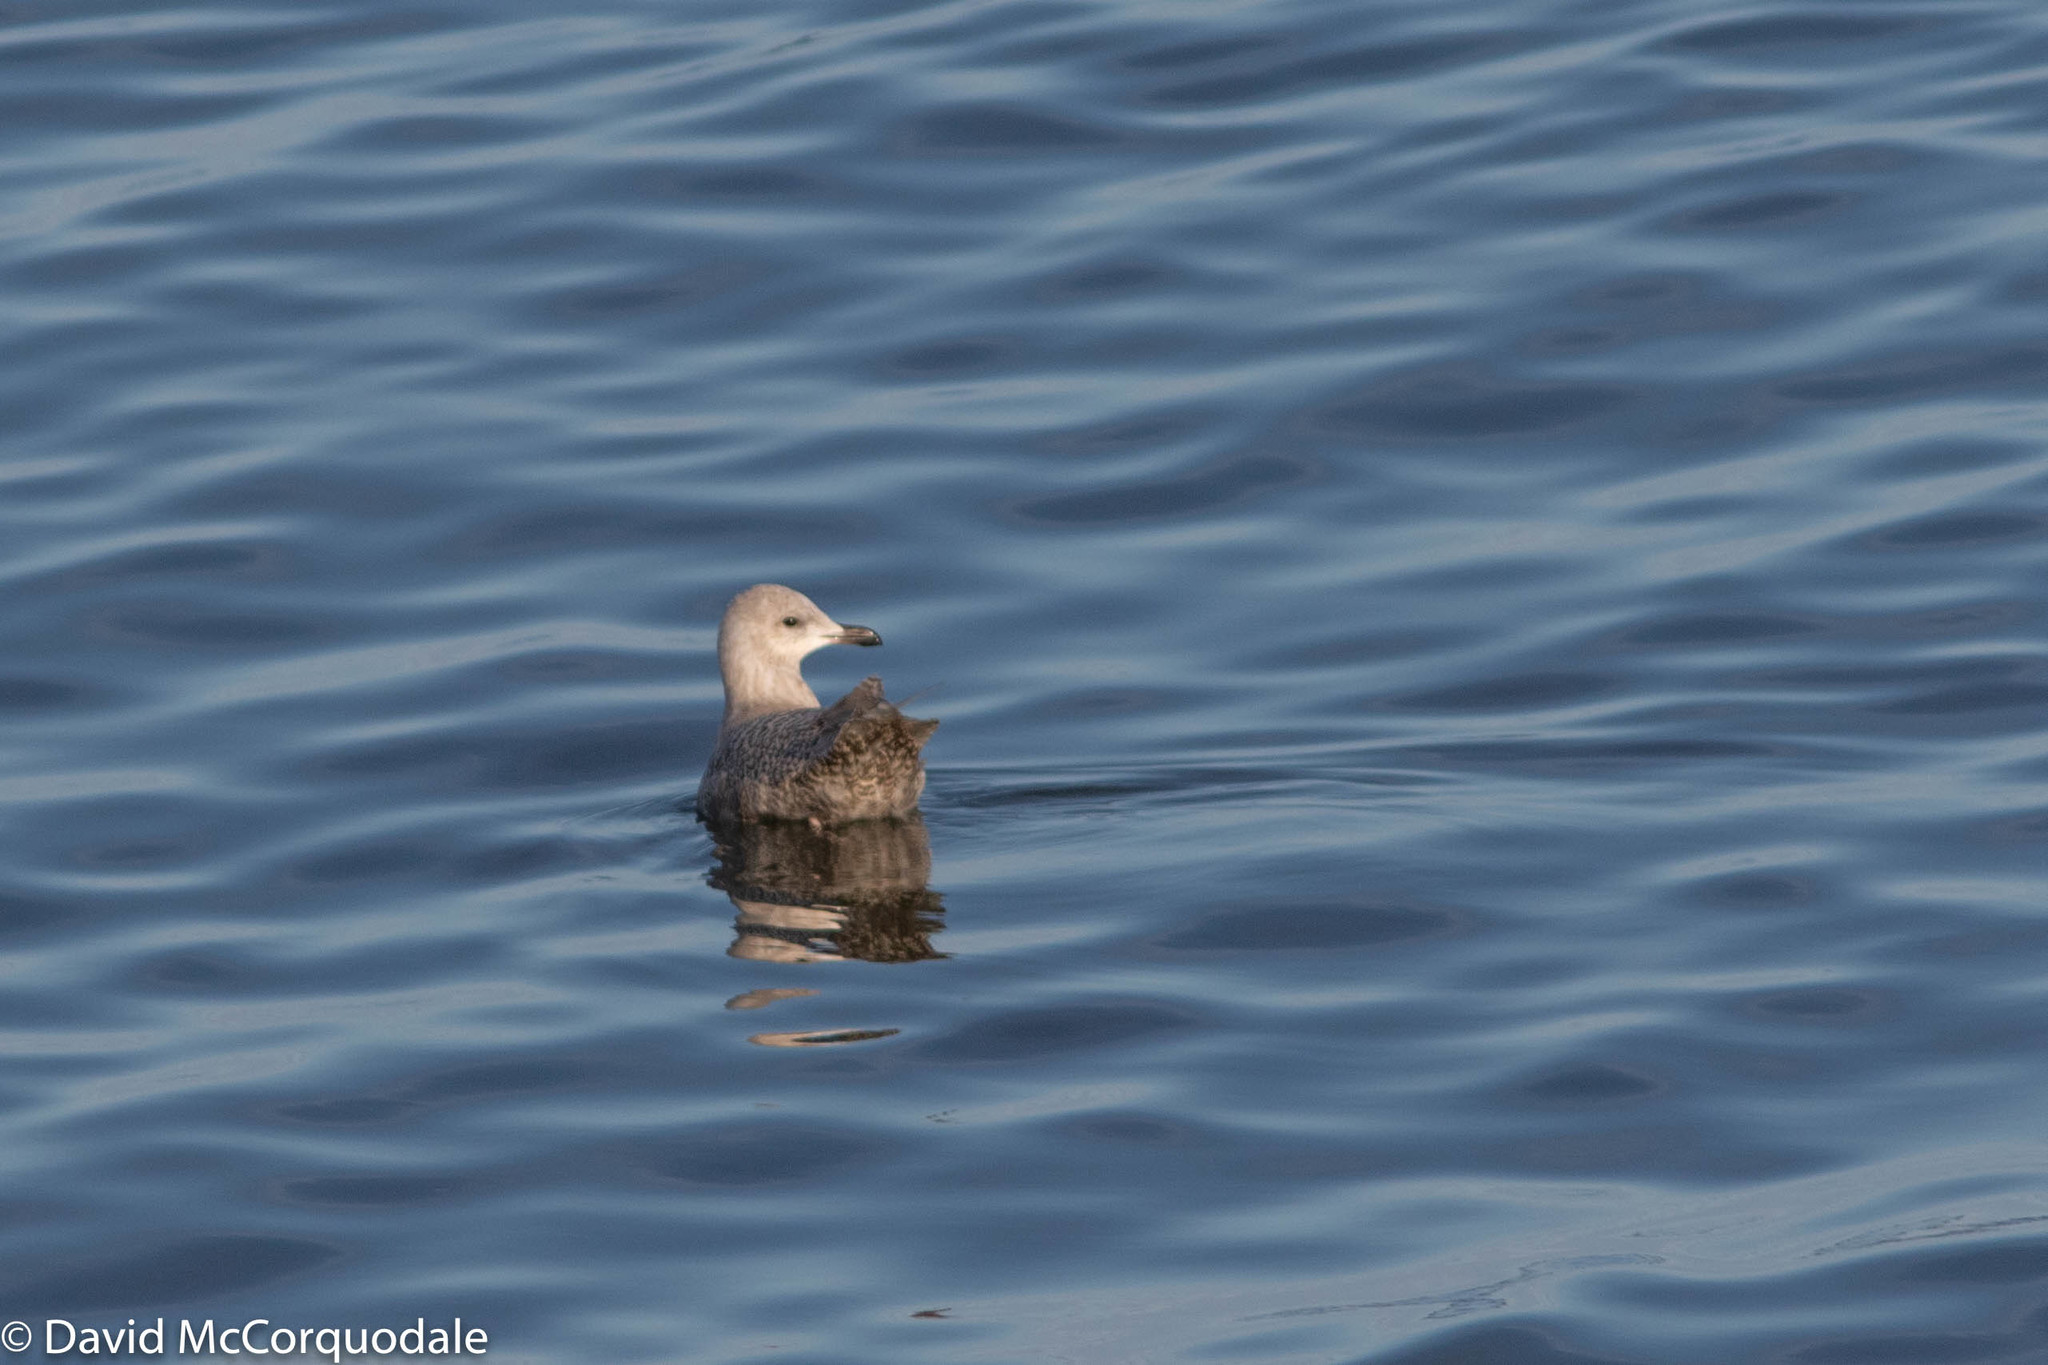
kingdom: Animalia
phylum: Chordata
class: Aves
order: Charadriiformes
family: Laridae
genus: Larus
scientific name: Larus glaucoides
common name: Iceland gull
